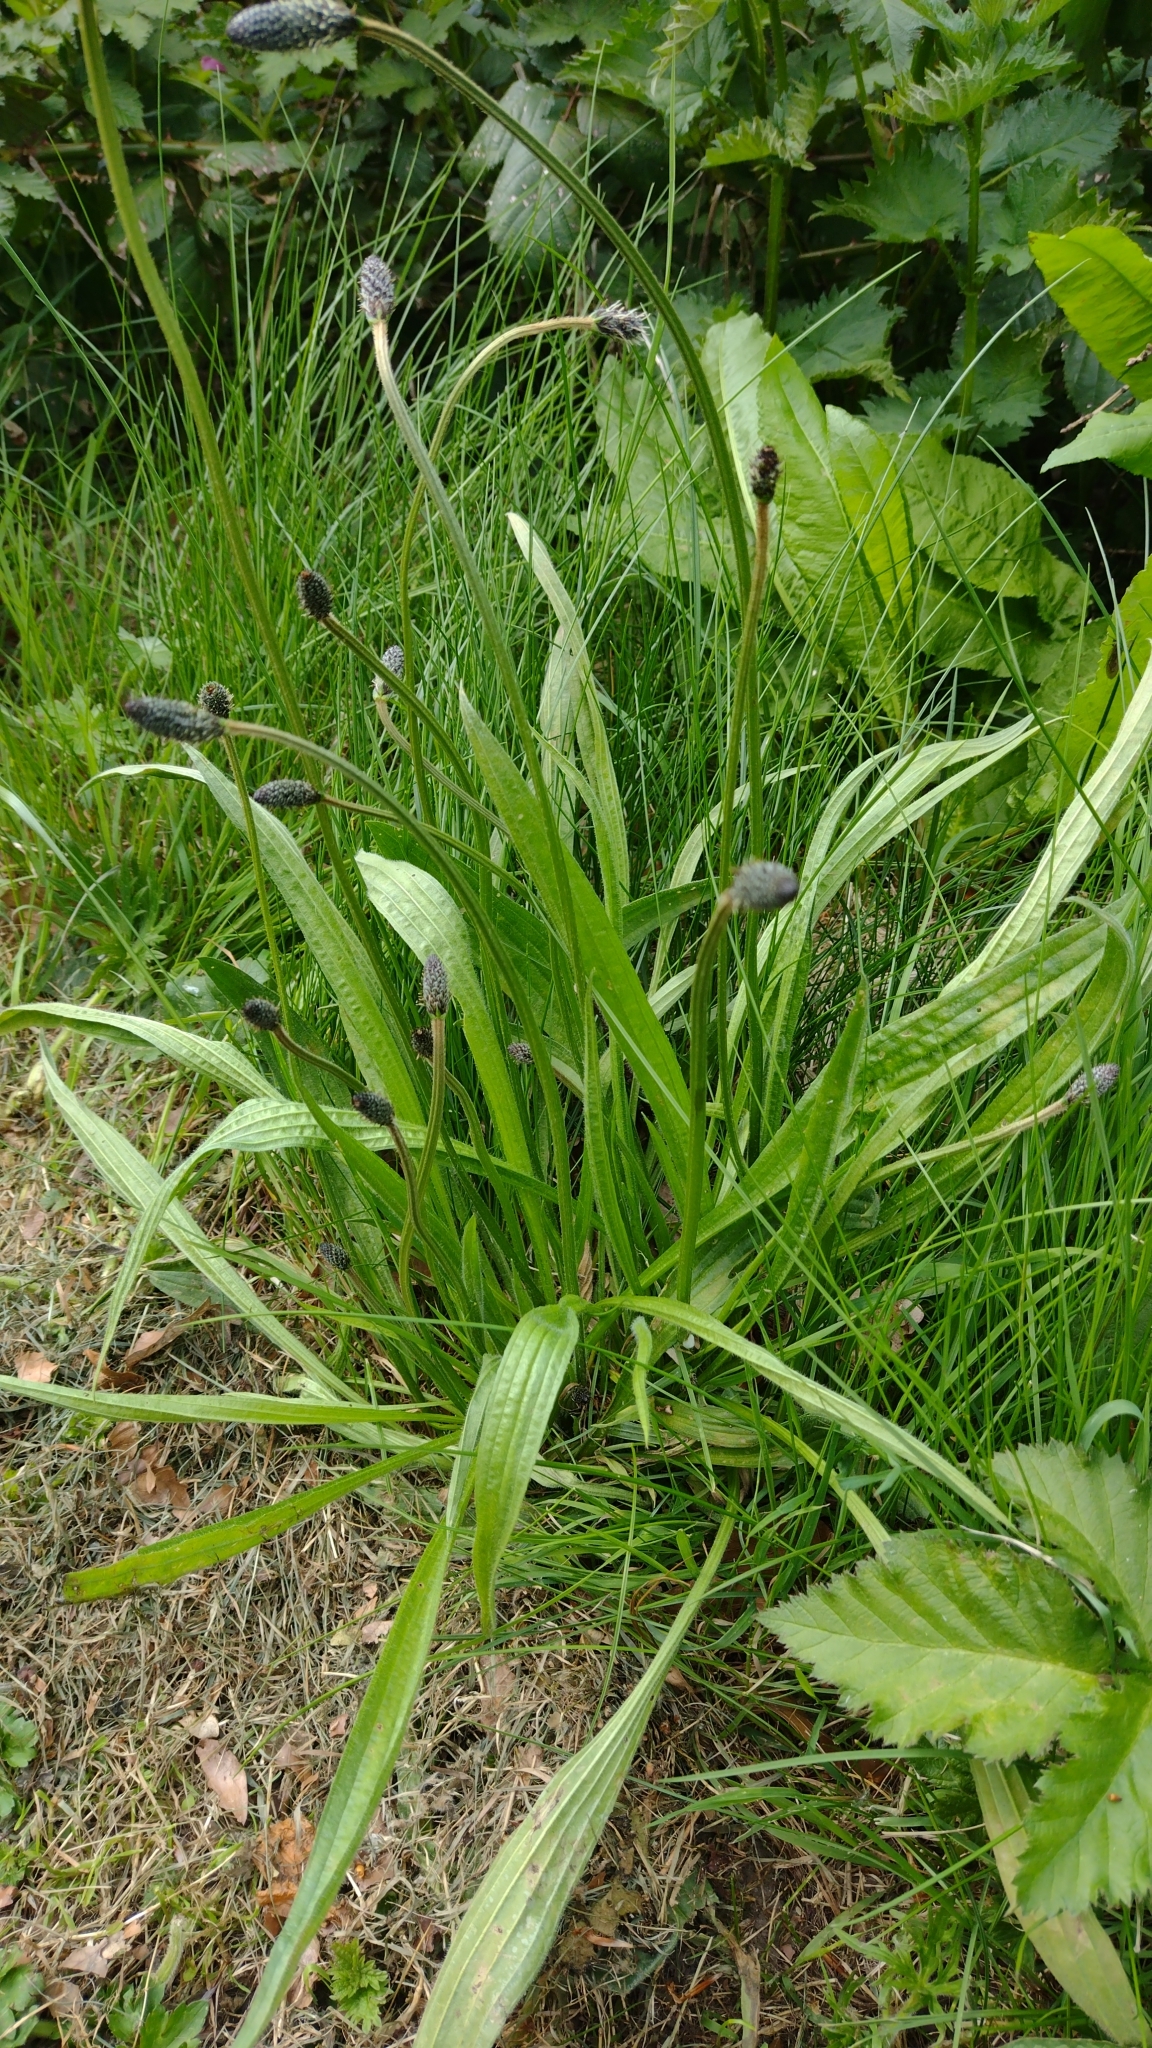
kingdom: Plantae
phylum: Tracheophyta
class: Magnoliopsida
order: Lamiales
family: Plantaginaceae
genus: Plantago
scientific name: Plantago lanceolata
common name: Ribwort plantain
